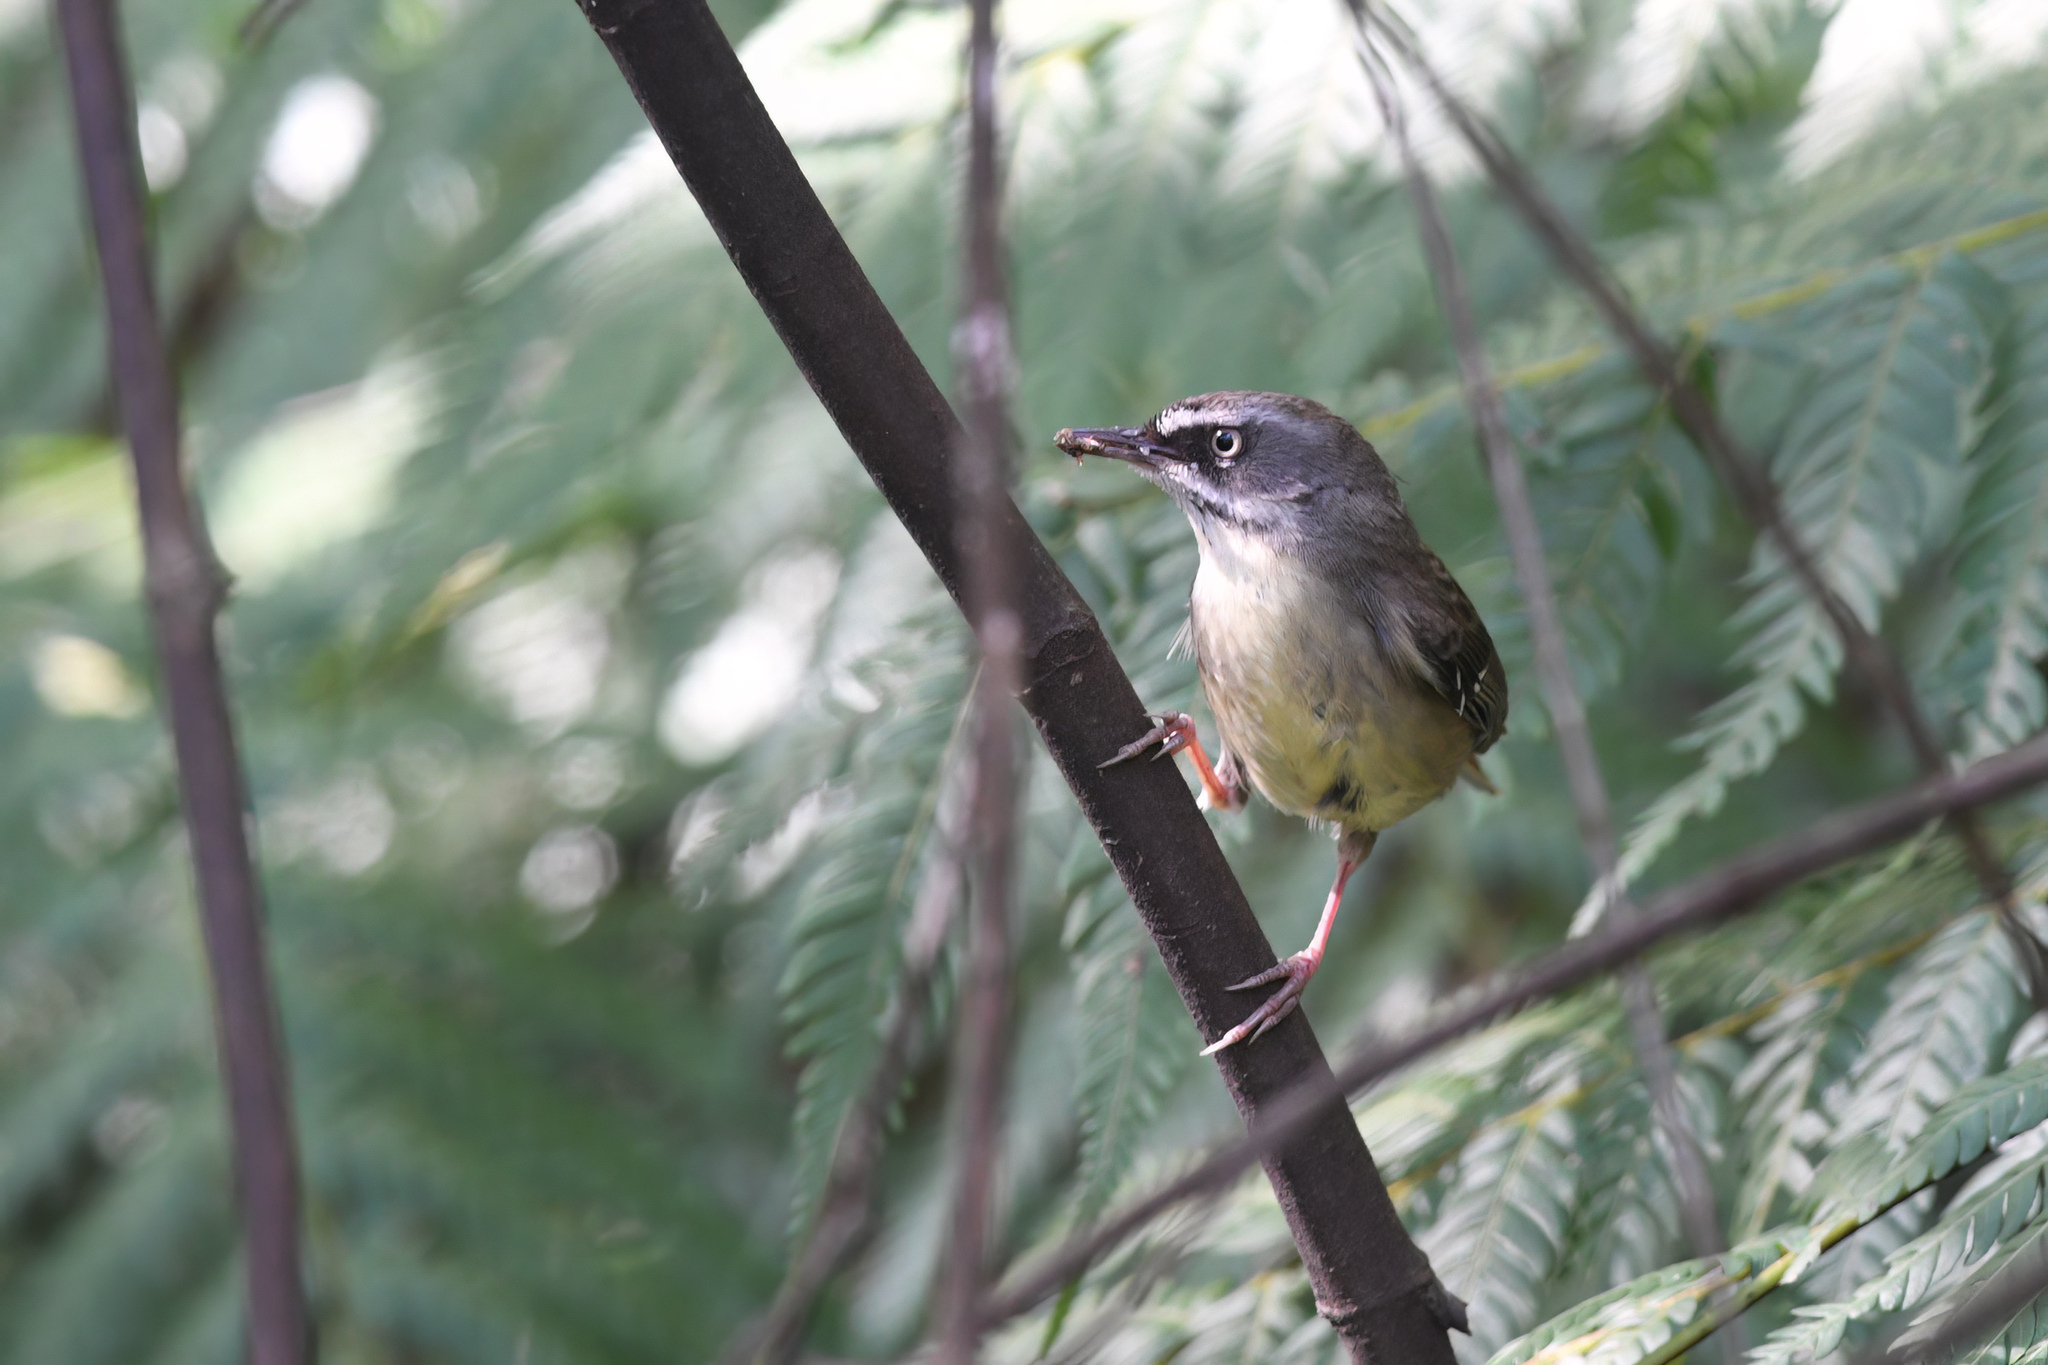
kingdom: Animalia
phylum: Chordata
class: Aves
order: Passeriformes
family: Acanthizidae
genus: Sericornis
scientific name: Sericornis frontalis
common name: White-browed scrubwren
